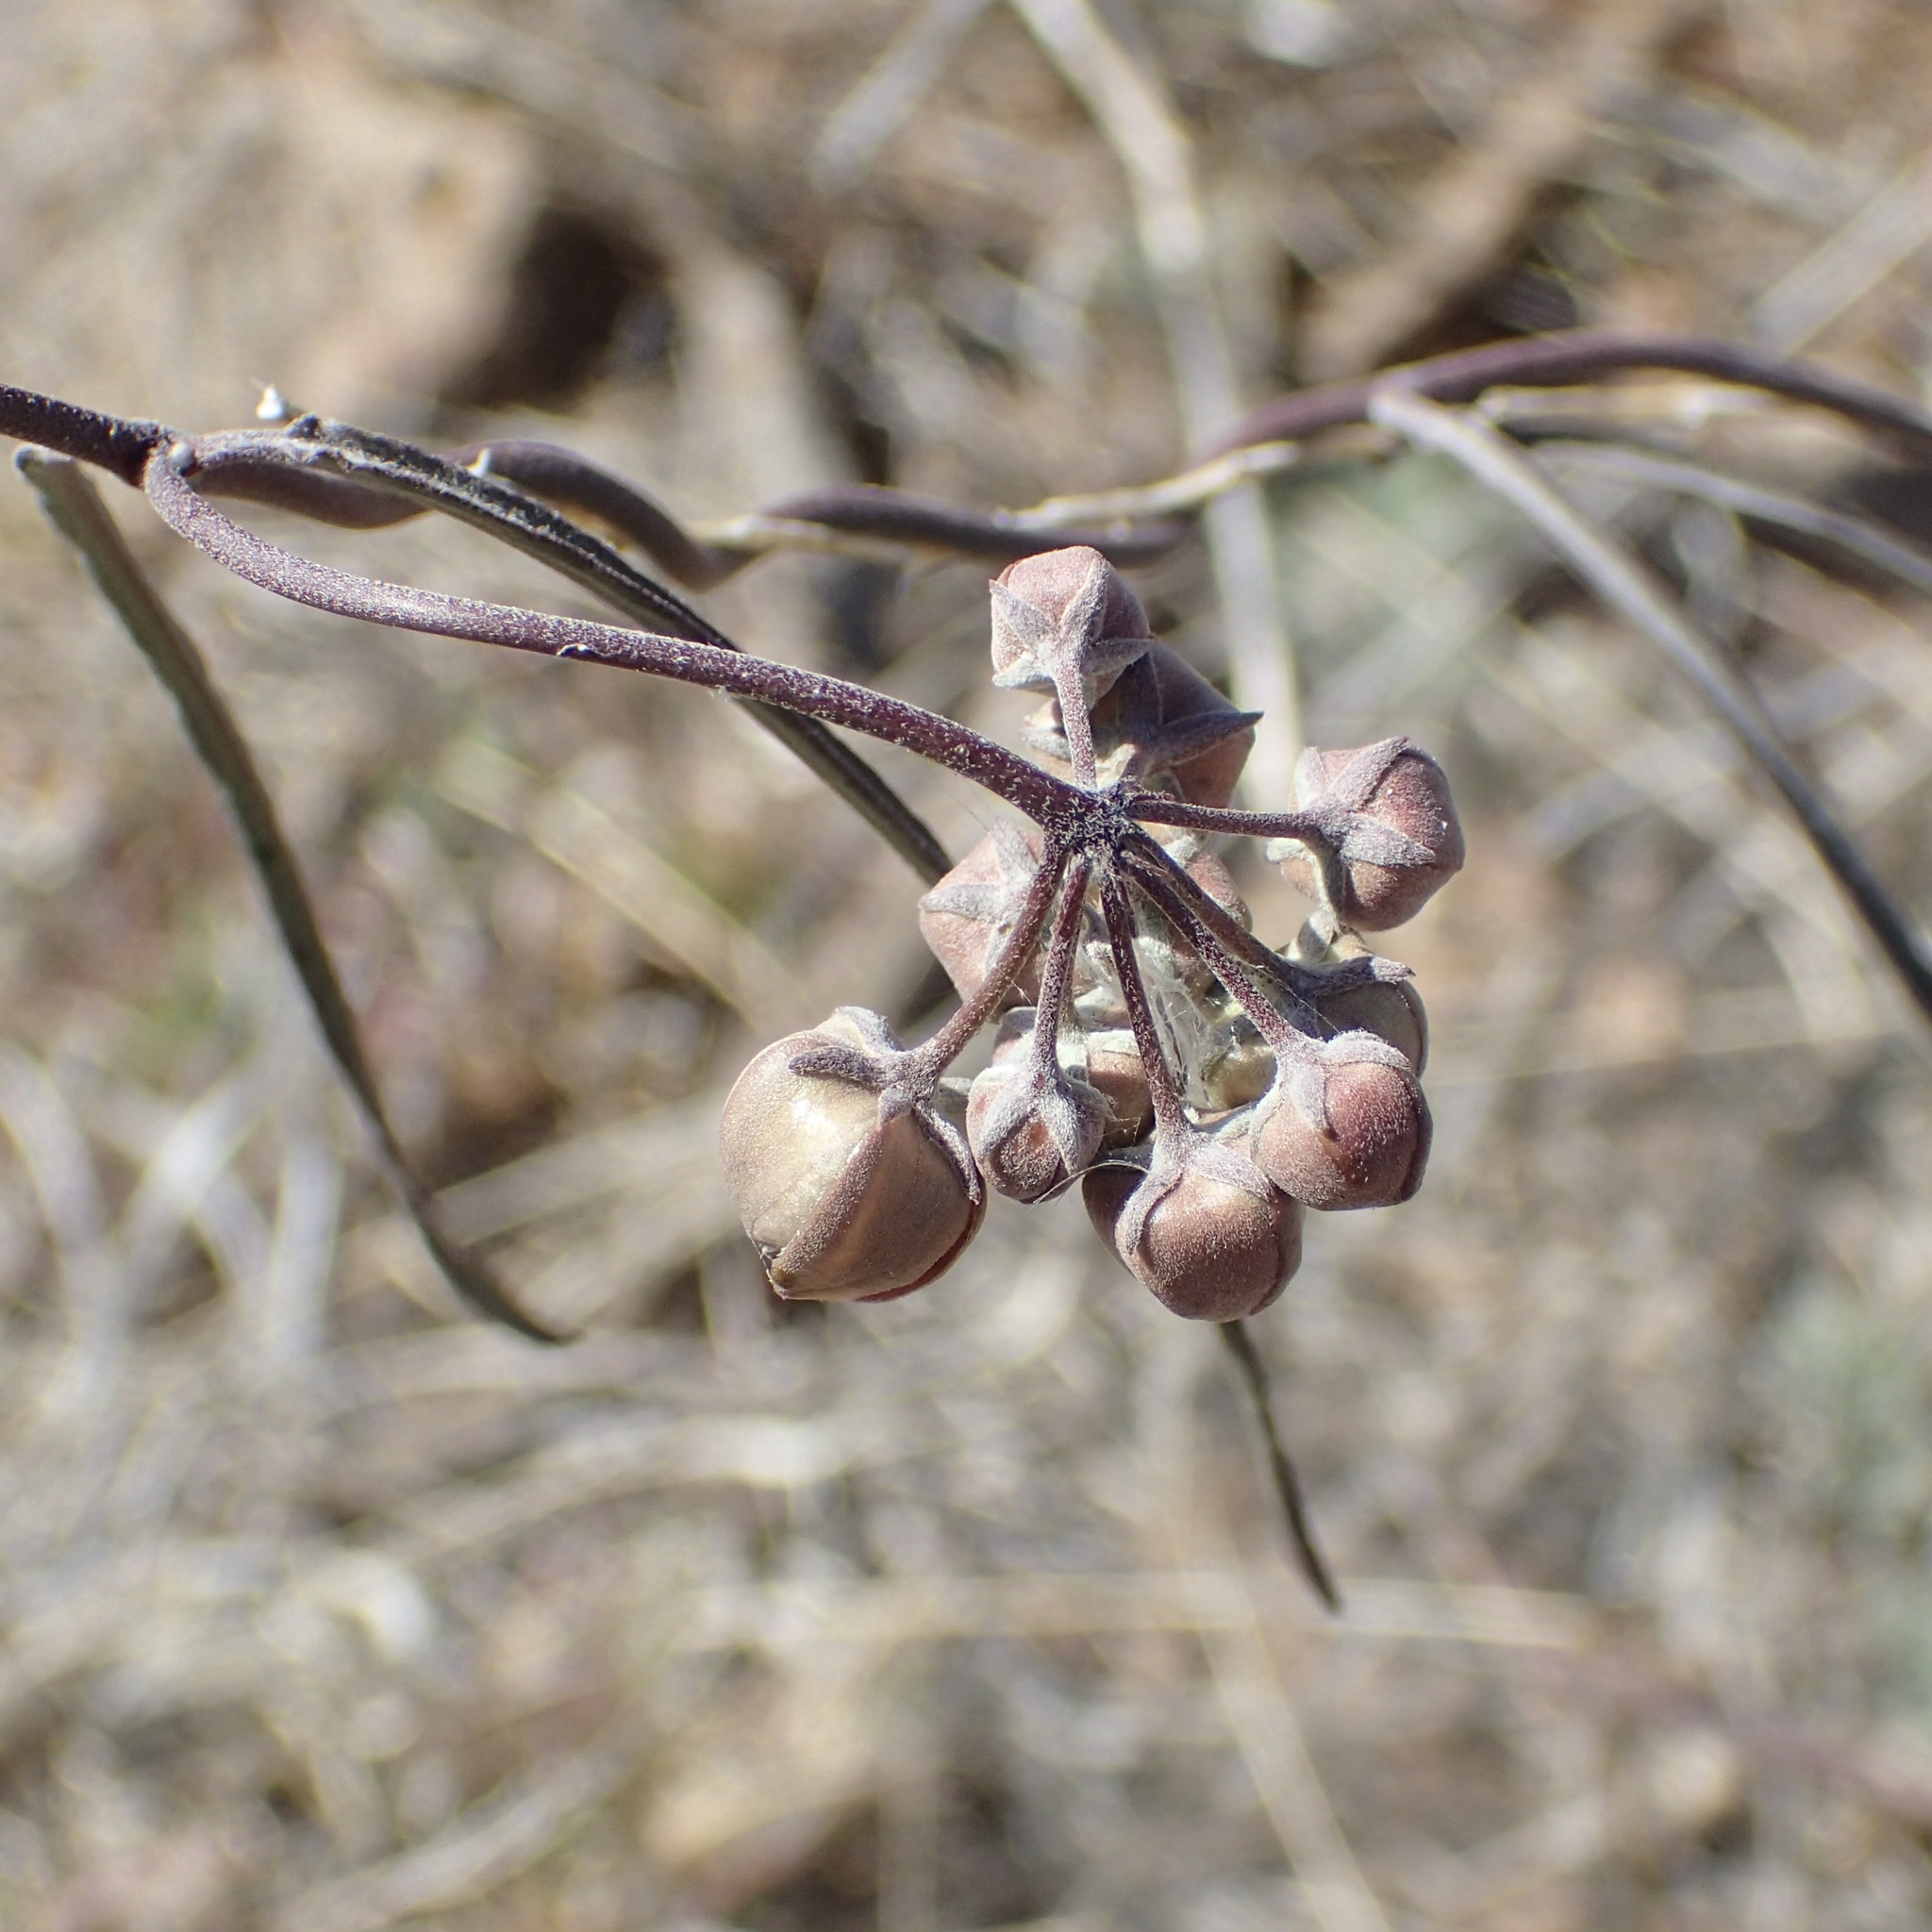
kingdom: Plantae
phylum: Tracheophyta
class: Magnoliopsida
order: Gentianales
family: Apocynaceae
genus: Funastrum
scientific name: Funastrum crispum
